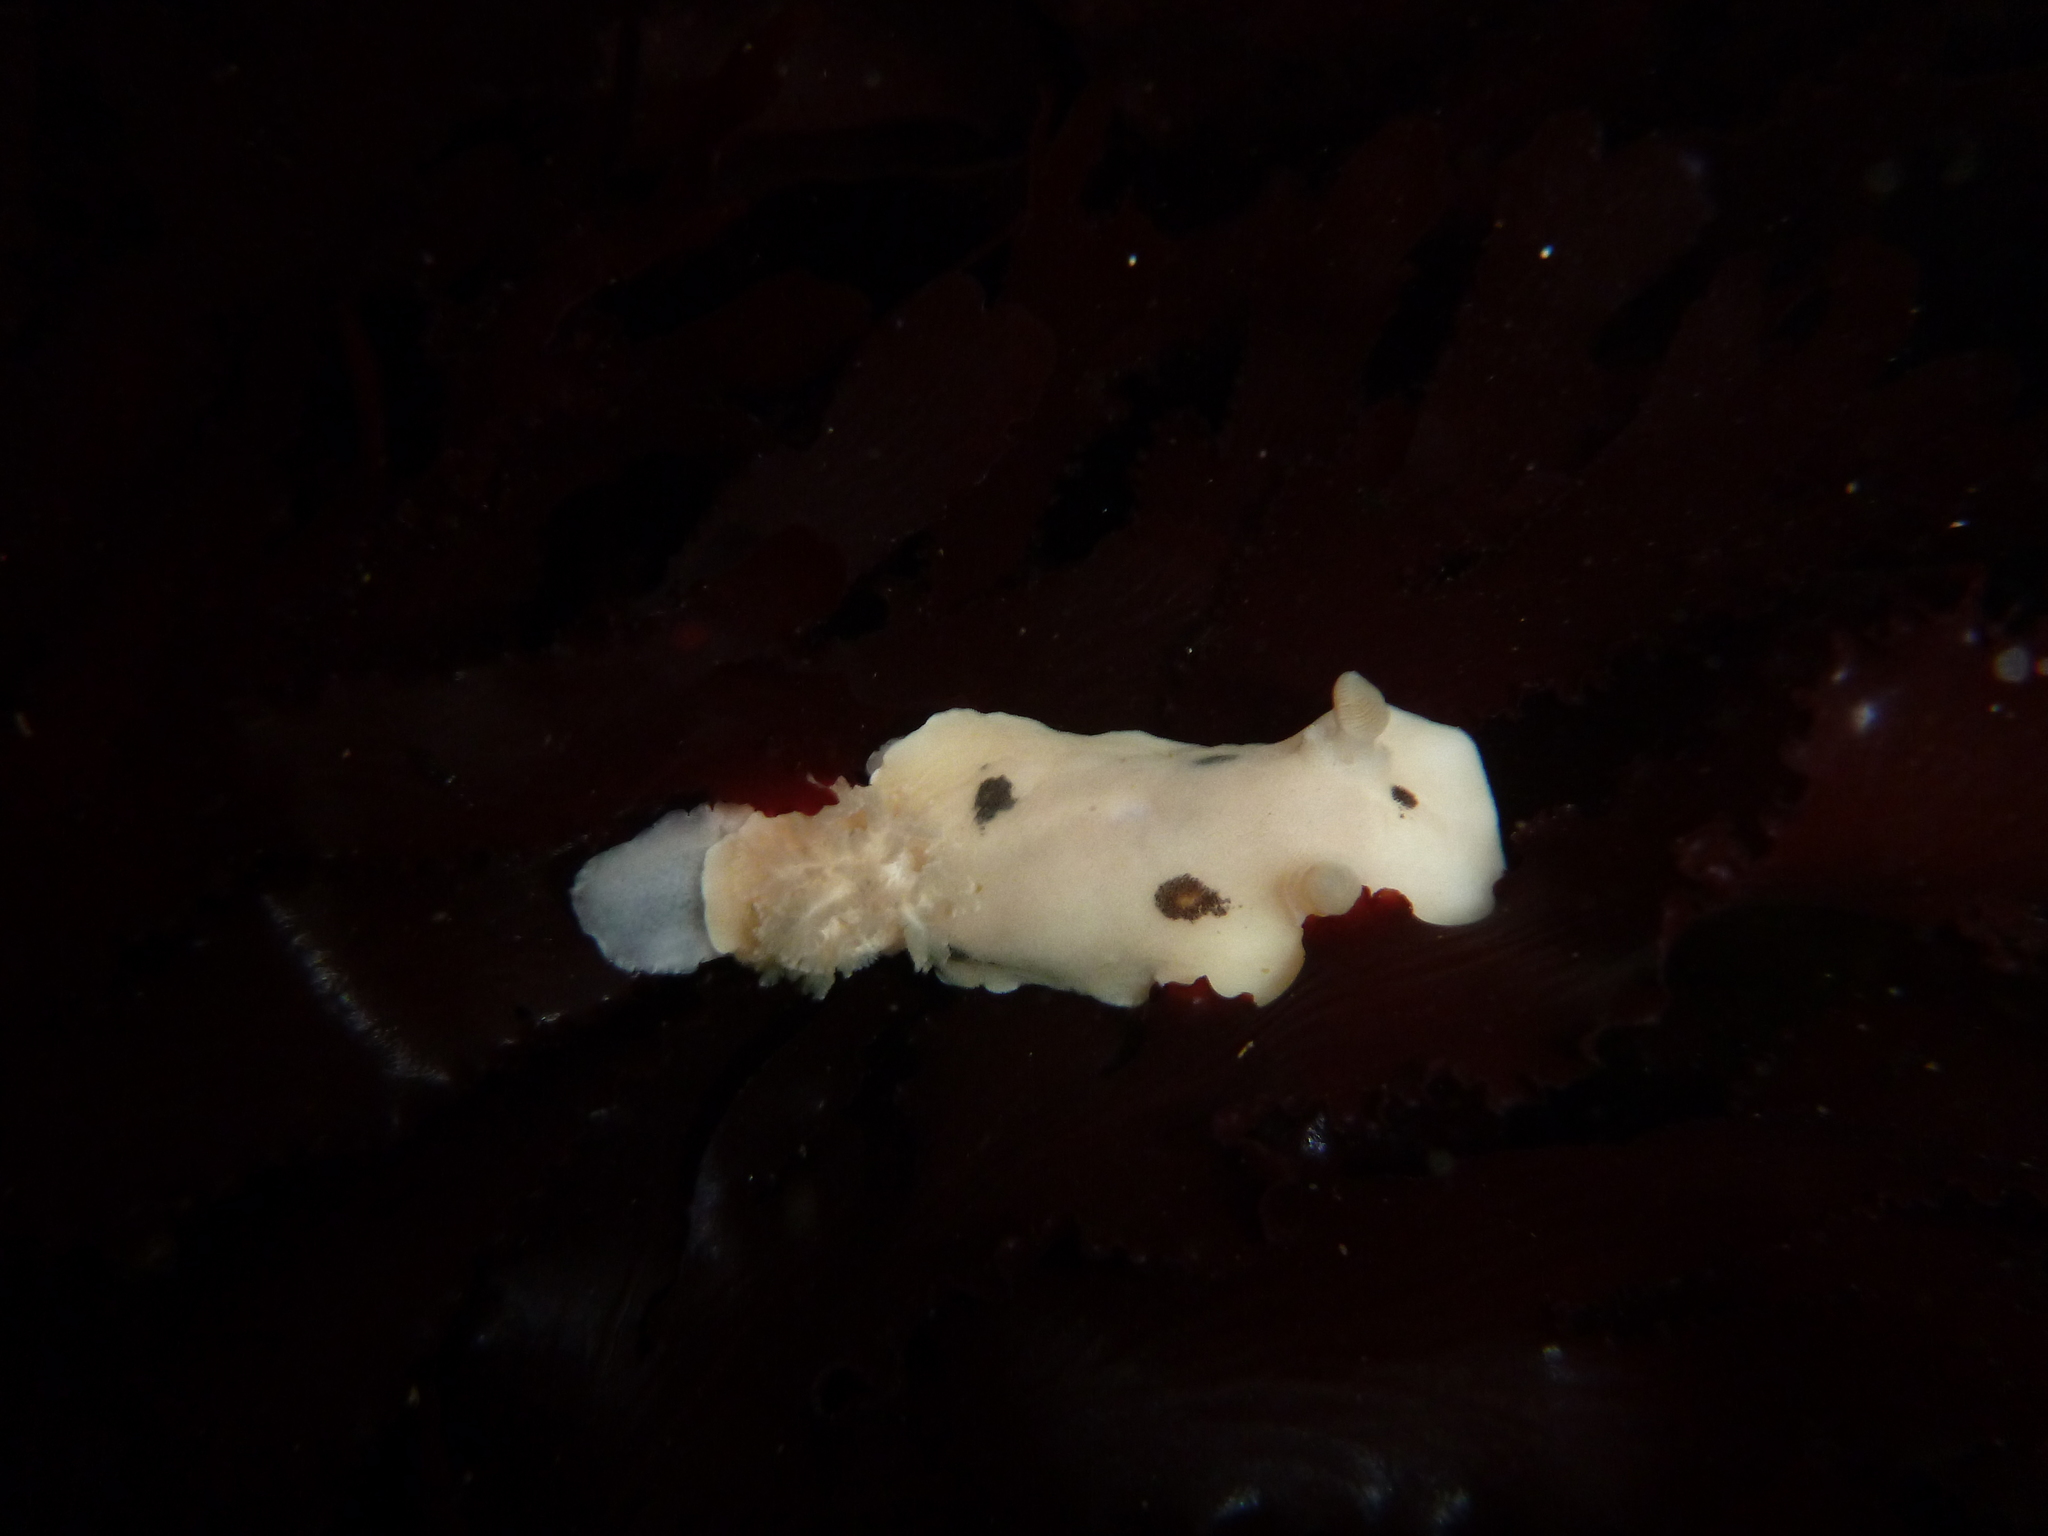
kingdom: Animalia
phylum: Mollusca
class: Gastropoda
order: Nudibranchia
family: Discodorididae
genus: Diaulula
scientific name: Diaulula sandiegensis
